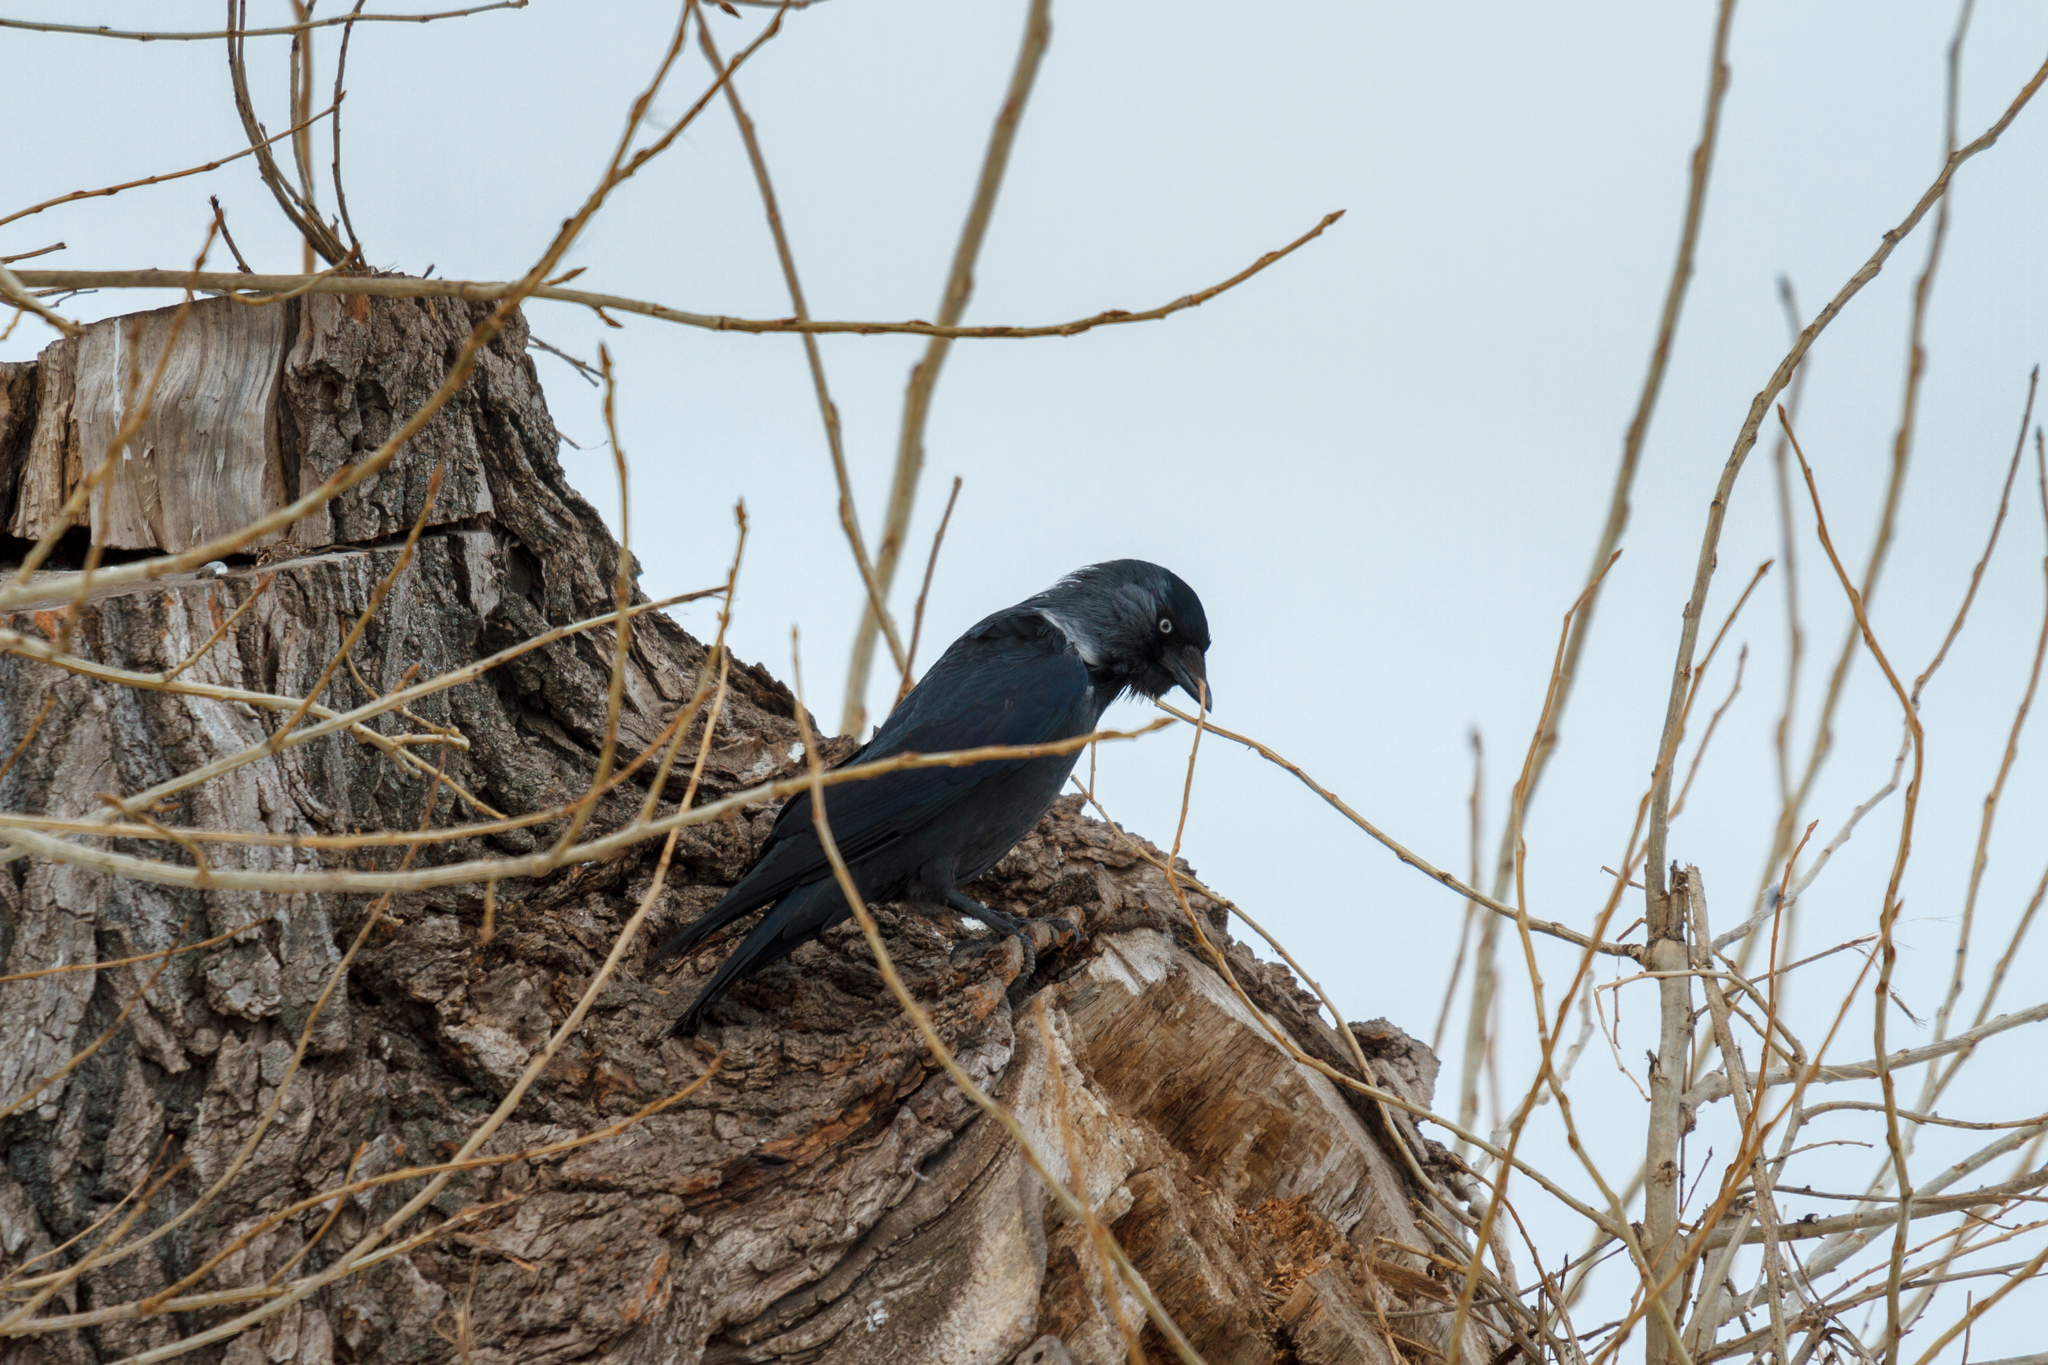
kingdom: Animalia
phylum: Chordata
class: Aves
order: Passeriformes
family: Corvidae
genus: Coloeus
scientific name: Coloeus monedula
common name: Western jackdaw
